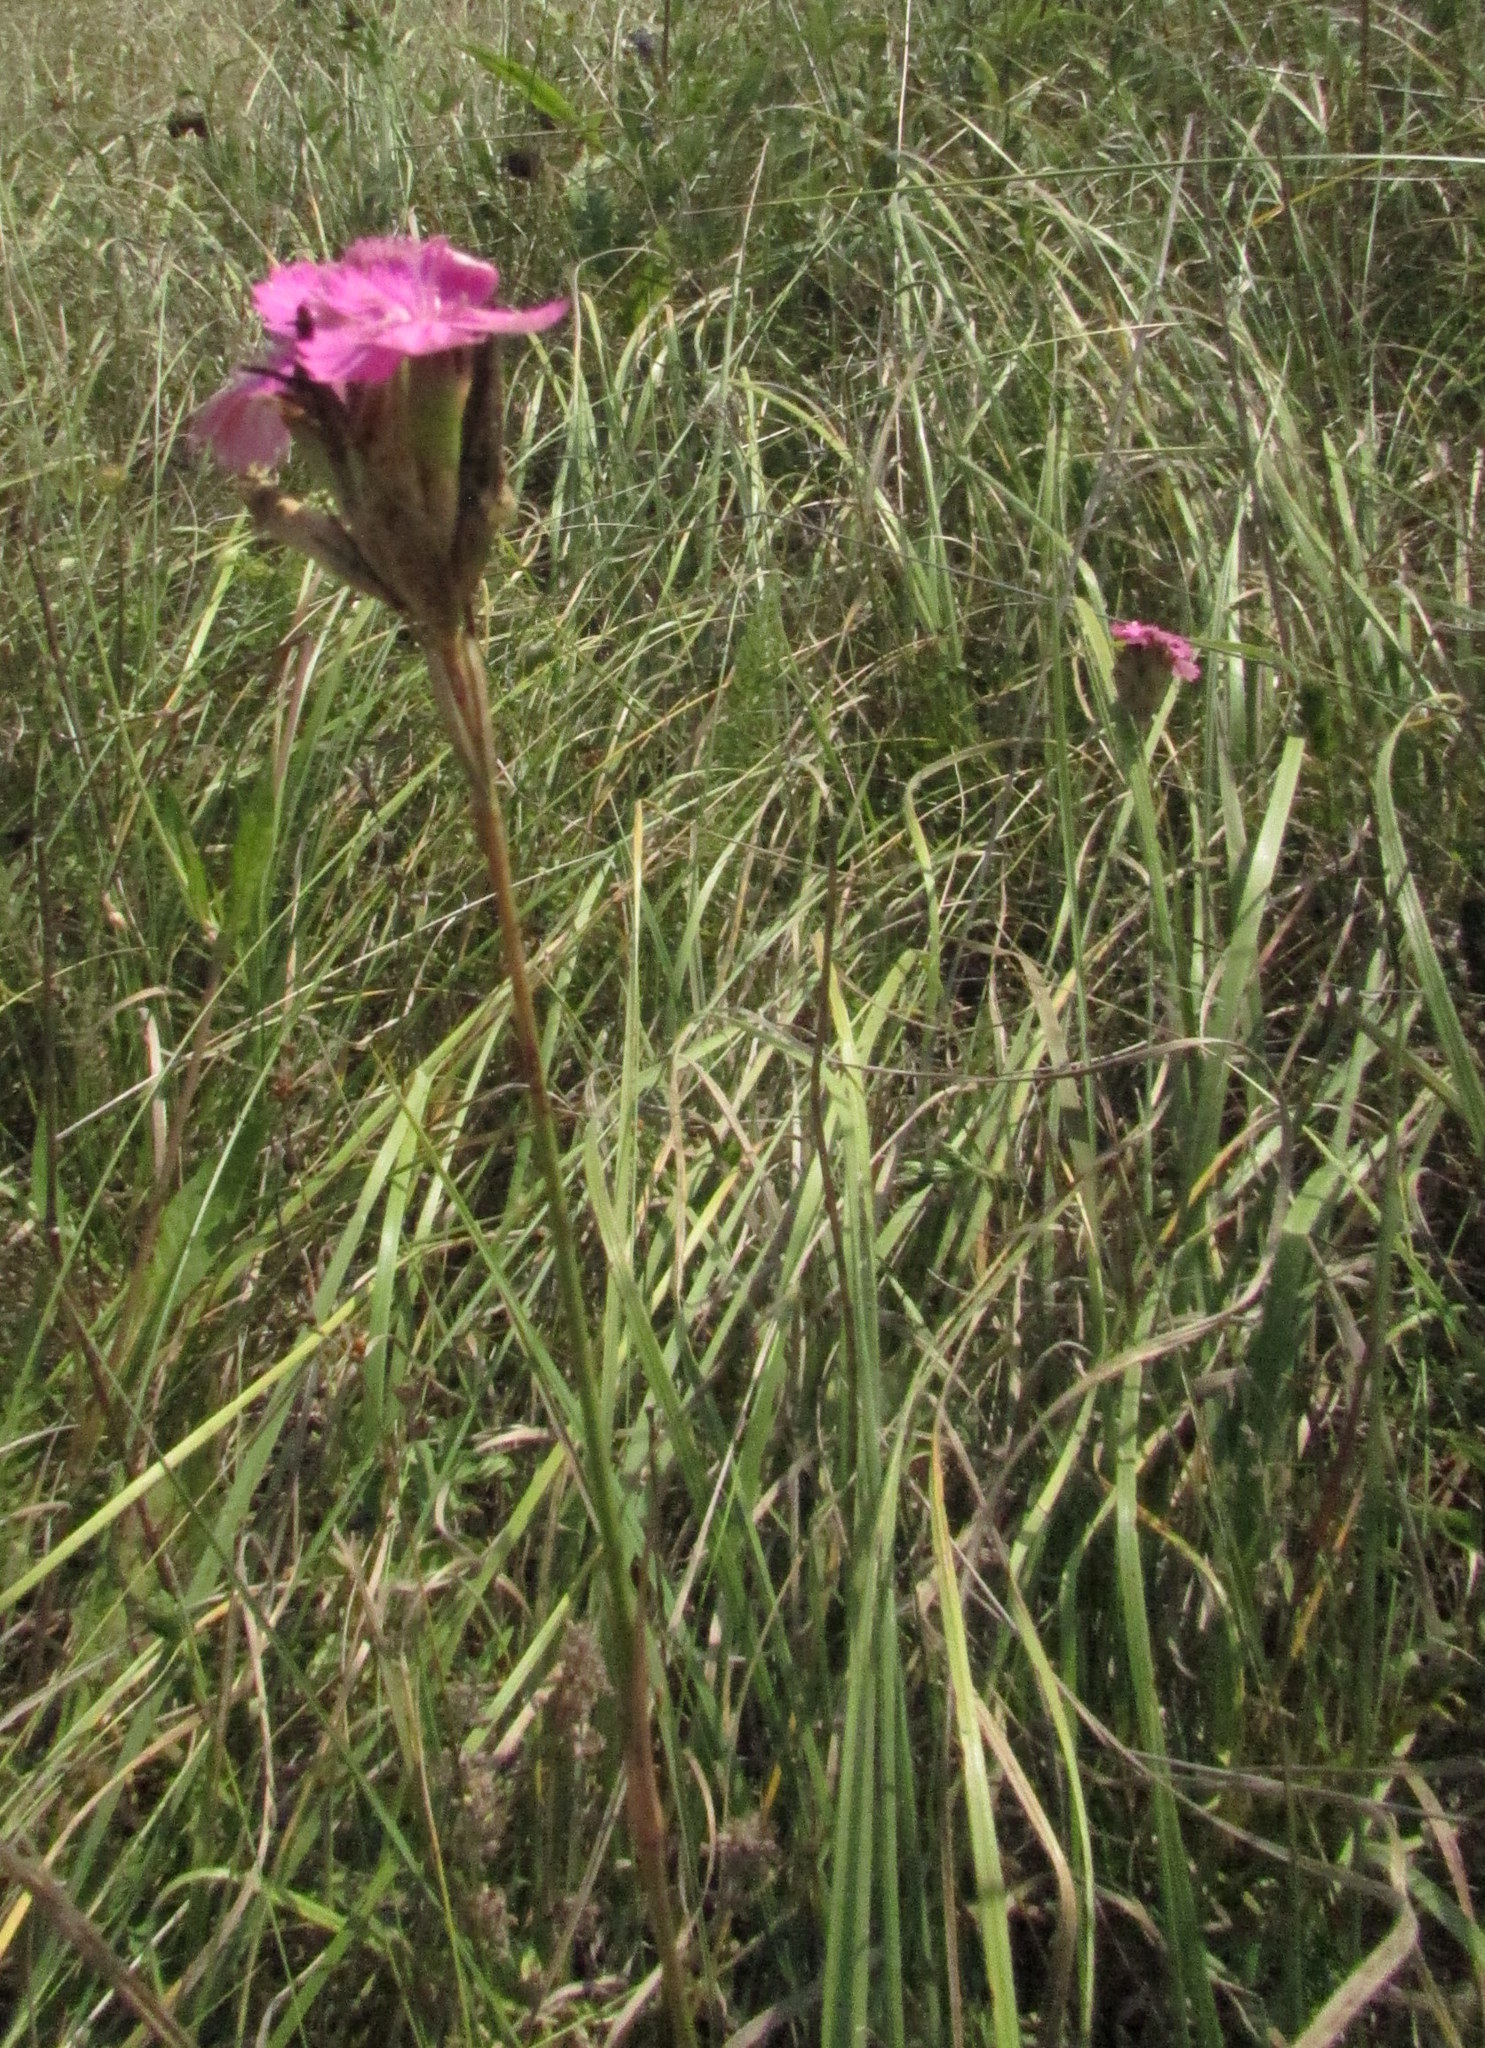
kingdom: Plantae
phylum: Tracheophyta
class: Magnoliopsida
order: Caryophyllales
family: Caryophyllaceae
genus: Dianthus
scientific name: Dianthus borbasii
